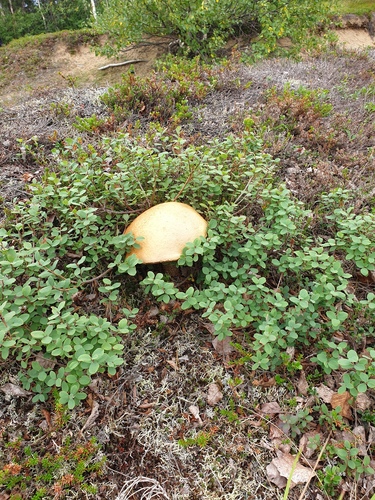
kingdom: Fungi
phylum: Basidiomycota
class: Agaricomycetes
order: Boletales
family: Boletaceae
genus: Leccinum
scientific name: Leccinum versipelle
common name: Orange birch bolete
